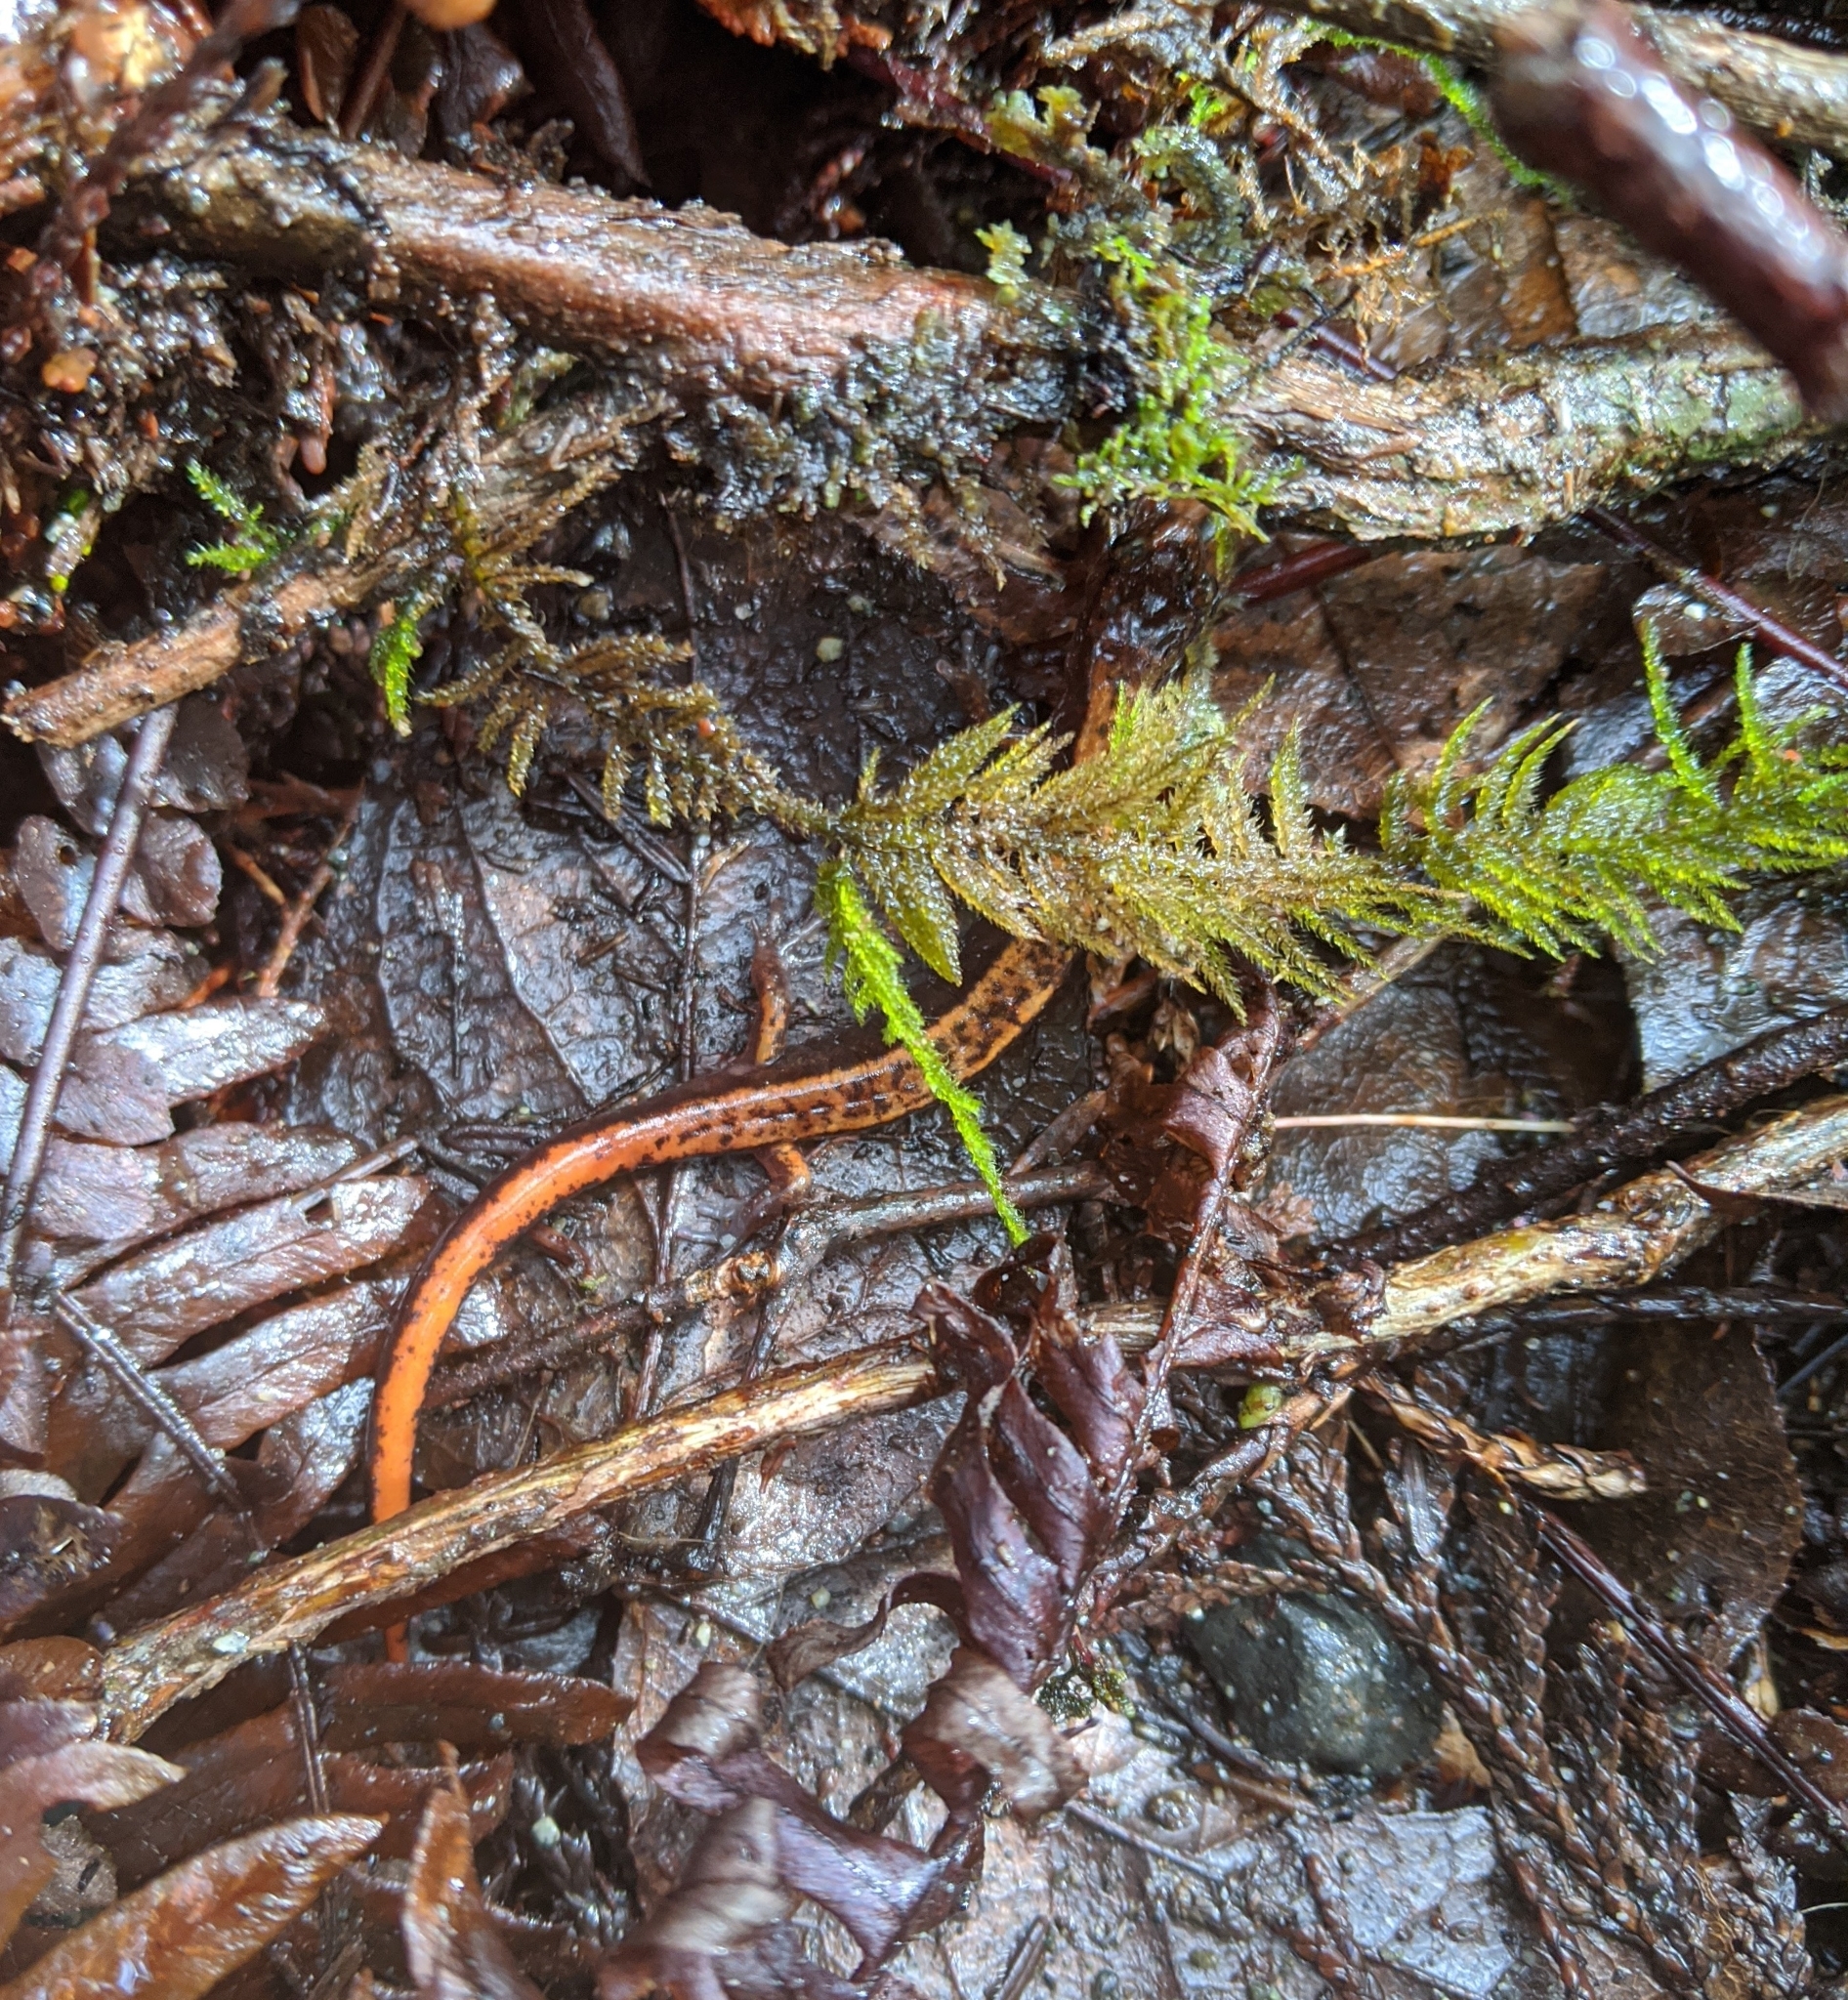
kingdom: Animalia
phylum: Chordata
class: Amphibia
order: Caudata
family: Plethodontidae
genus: Plethodon
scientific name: Plethodon vehiculum
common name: Western red-backed salamander
